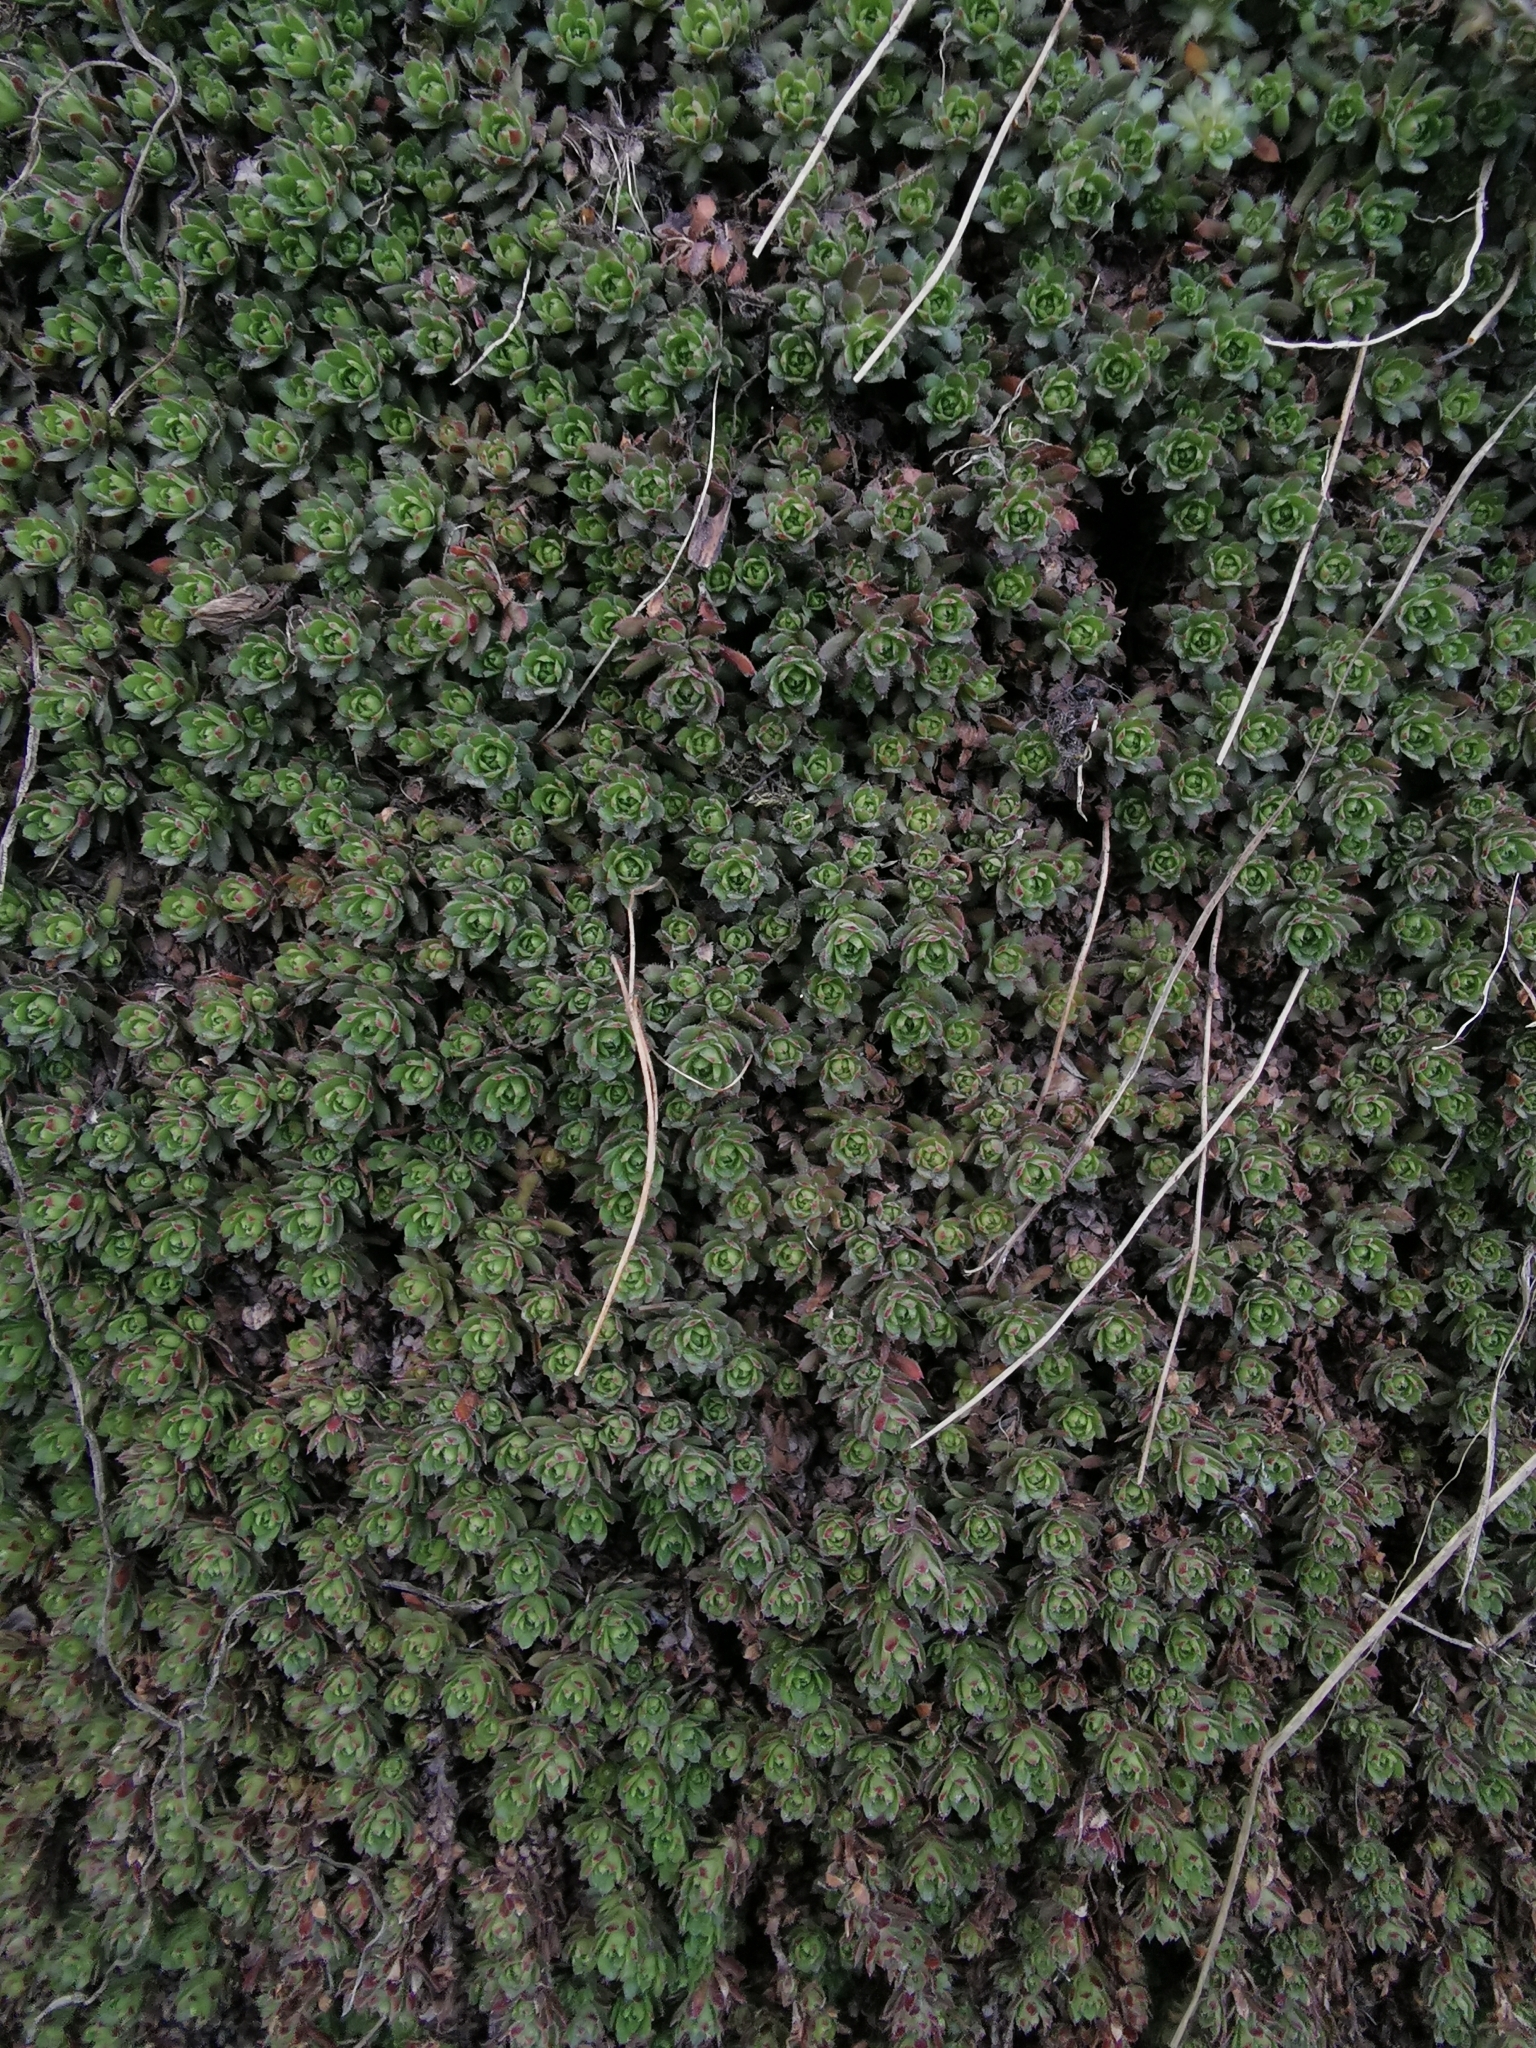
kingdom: Plantae
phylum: Tracheophyta
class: Magnoliopsida
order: Saxifragales
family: Saxifragaceae
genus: Saxifraga
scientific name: Saxifraga cherlerioides
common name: Yellow-dotted saxifrage
